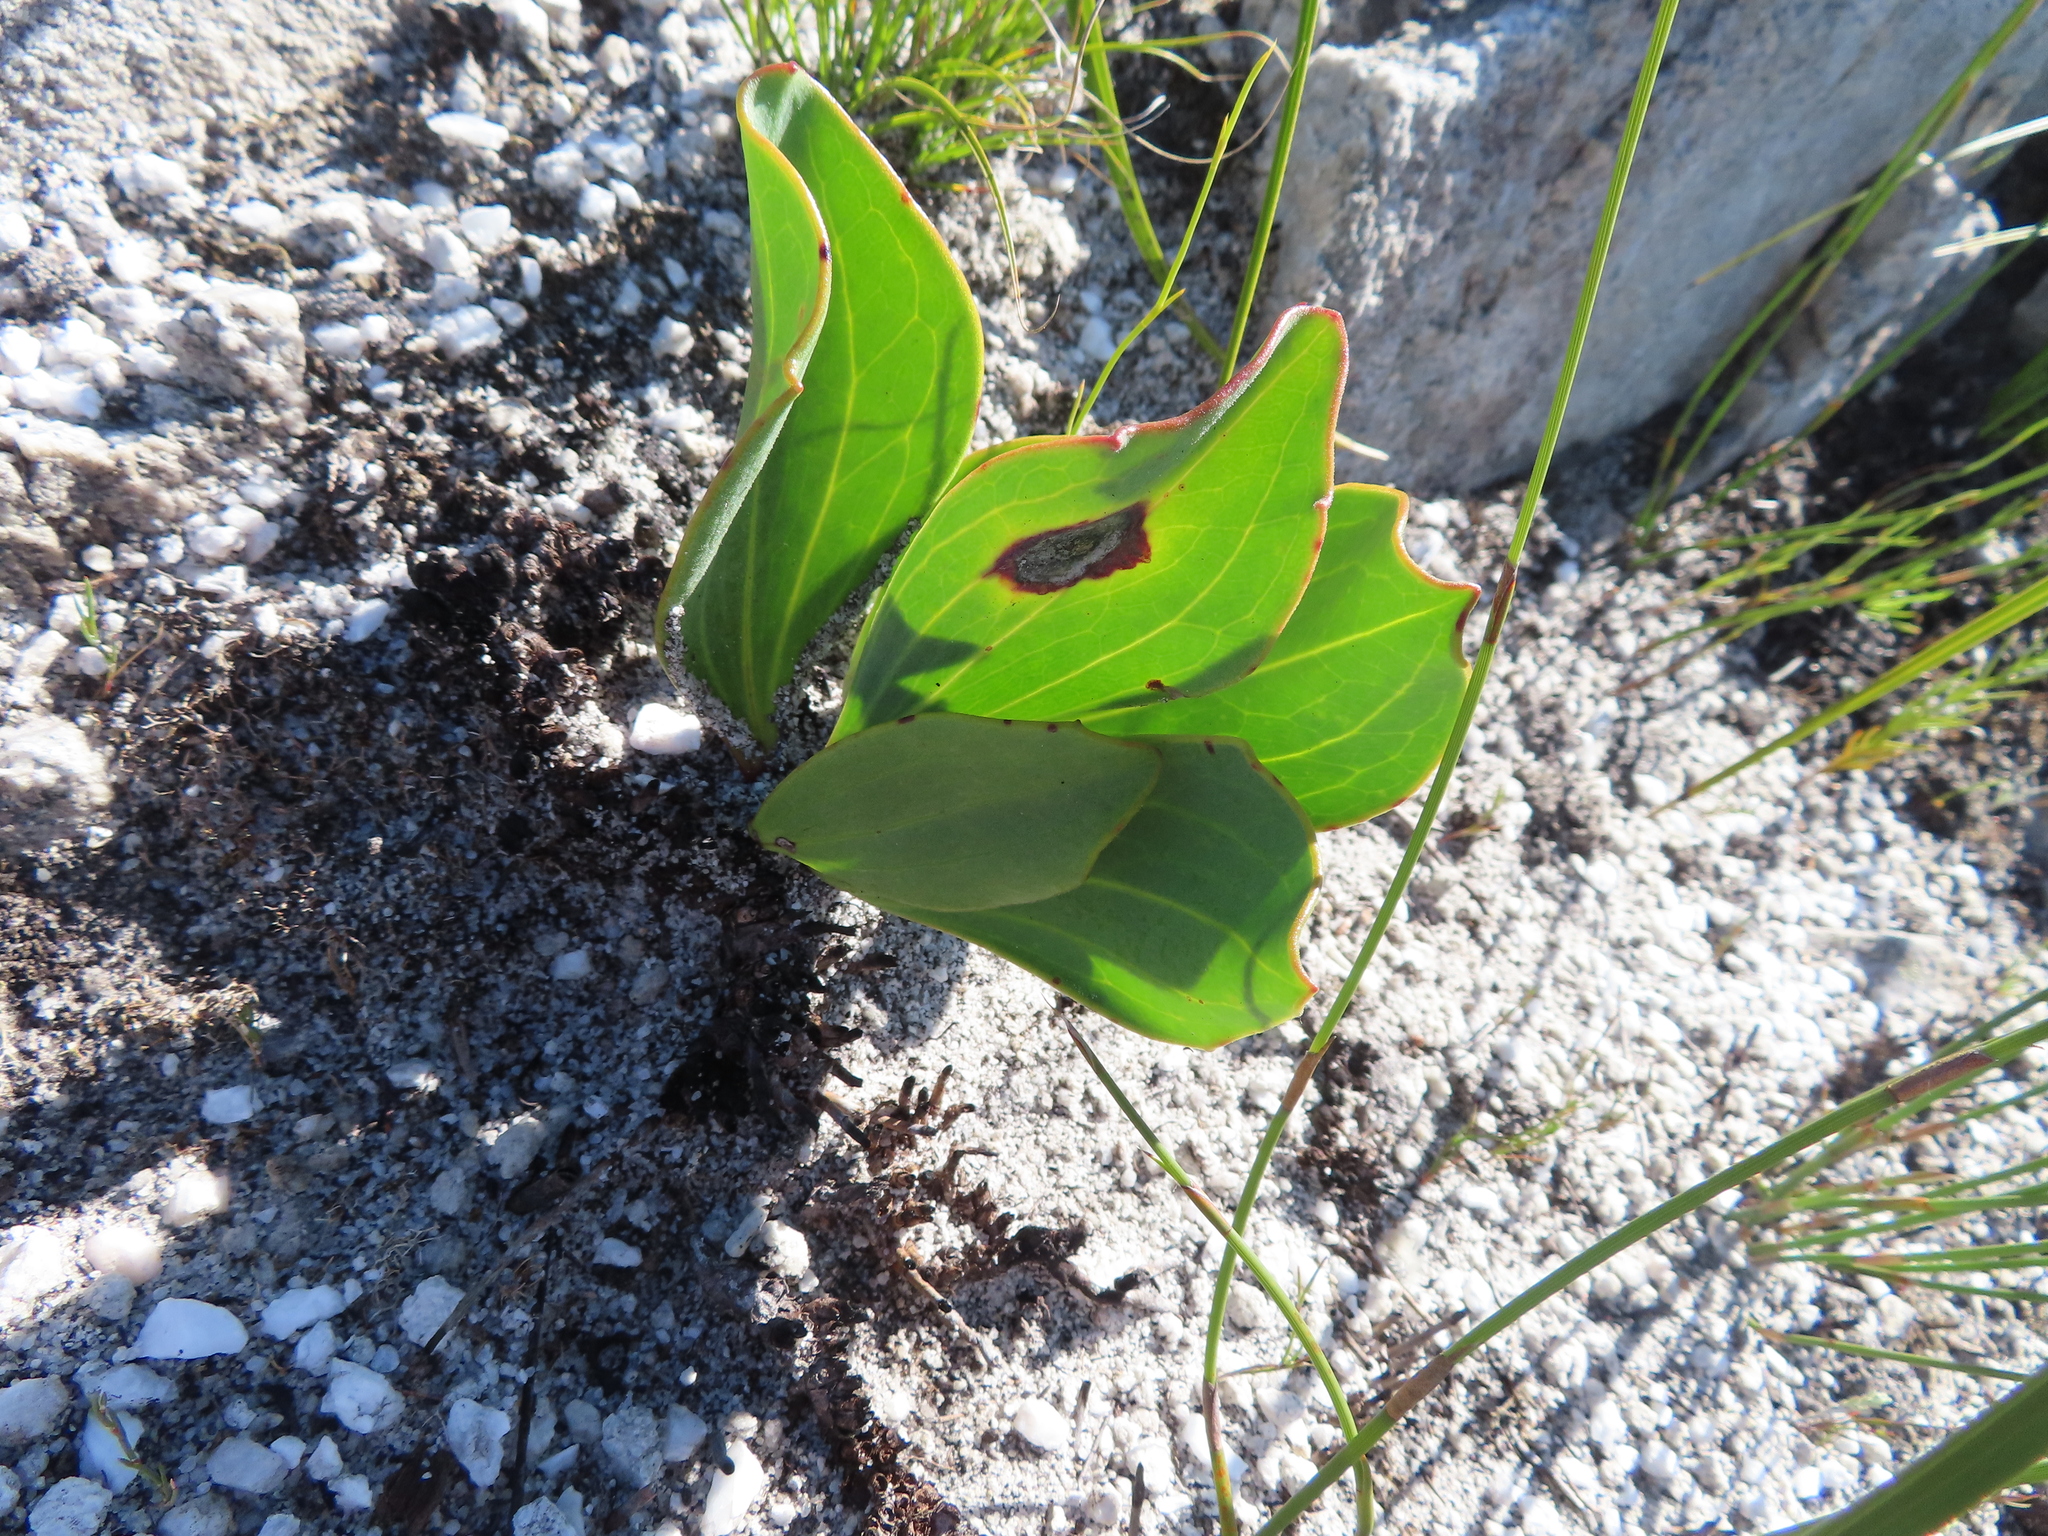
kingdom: Plantae
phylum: Tracheophyta
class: Magnoliopsida
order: Asterales
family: Asteraceae
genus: Mairia
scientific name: Mairia coriacea
